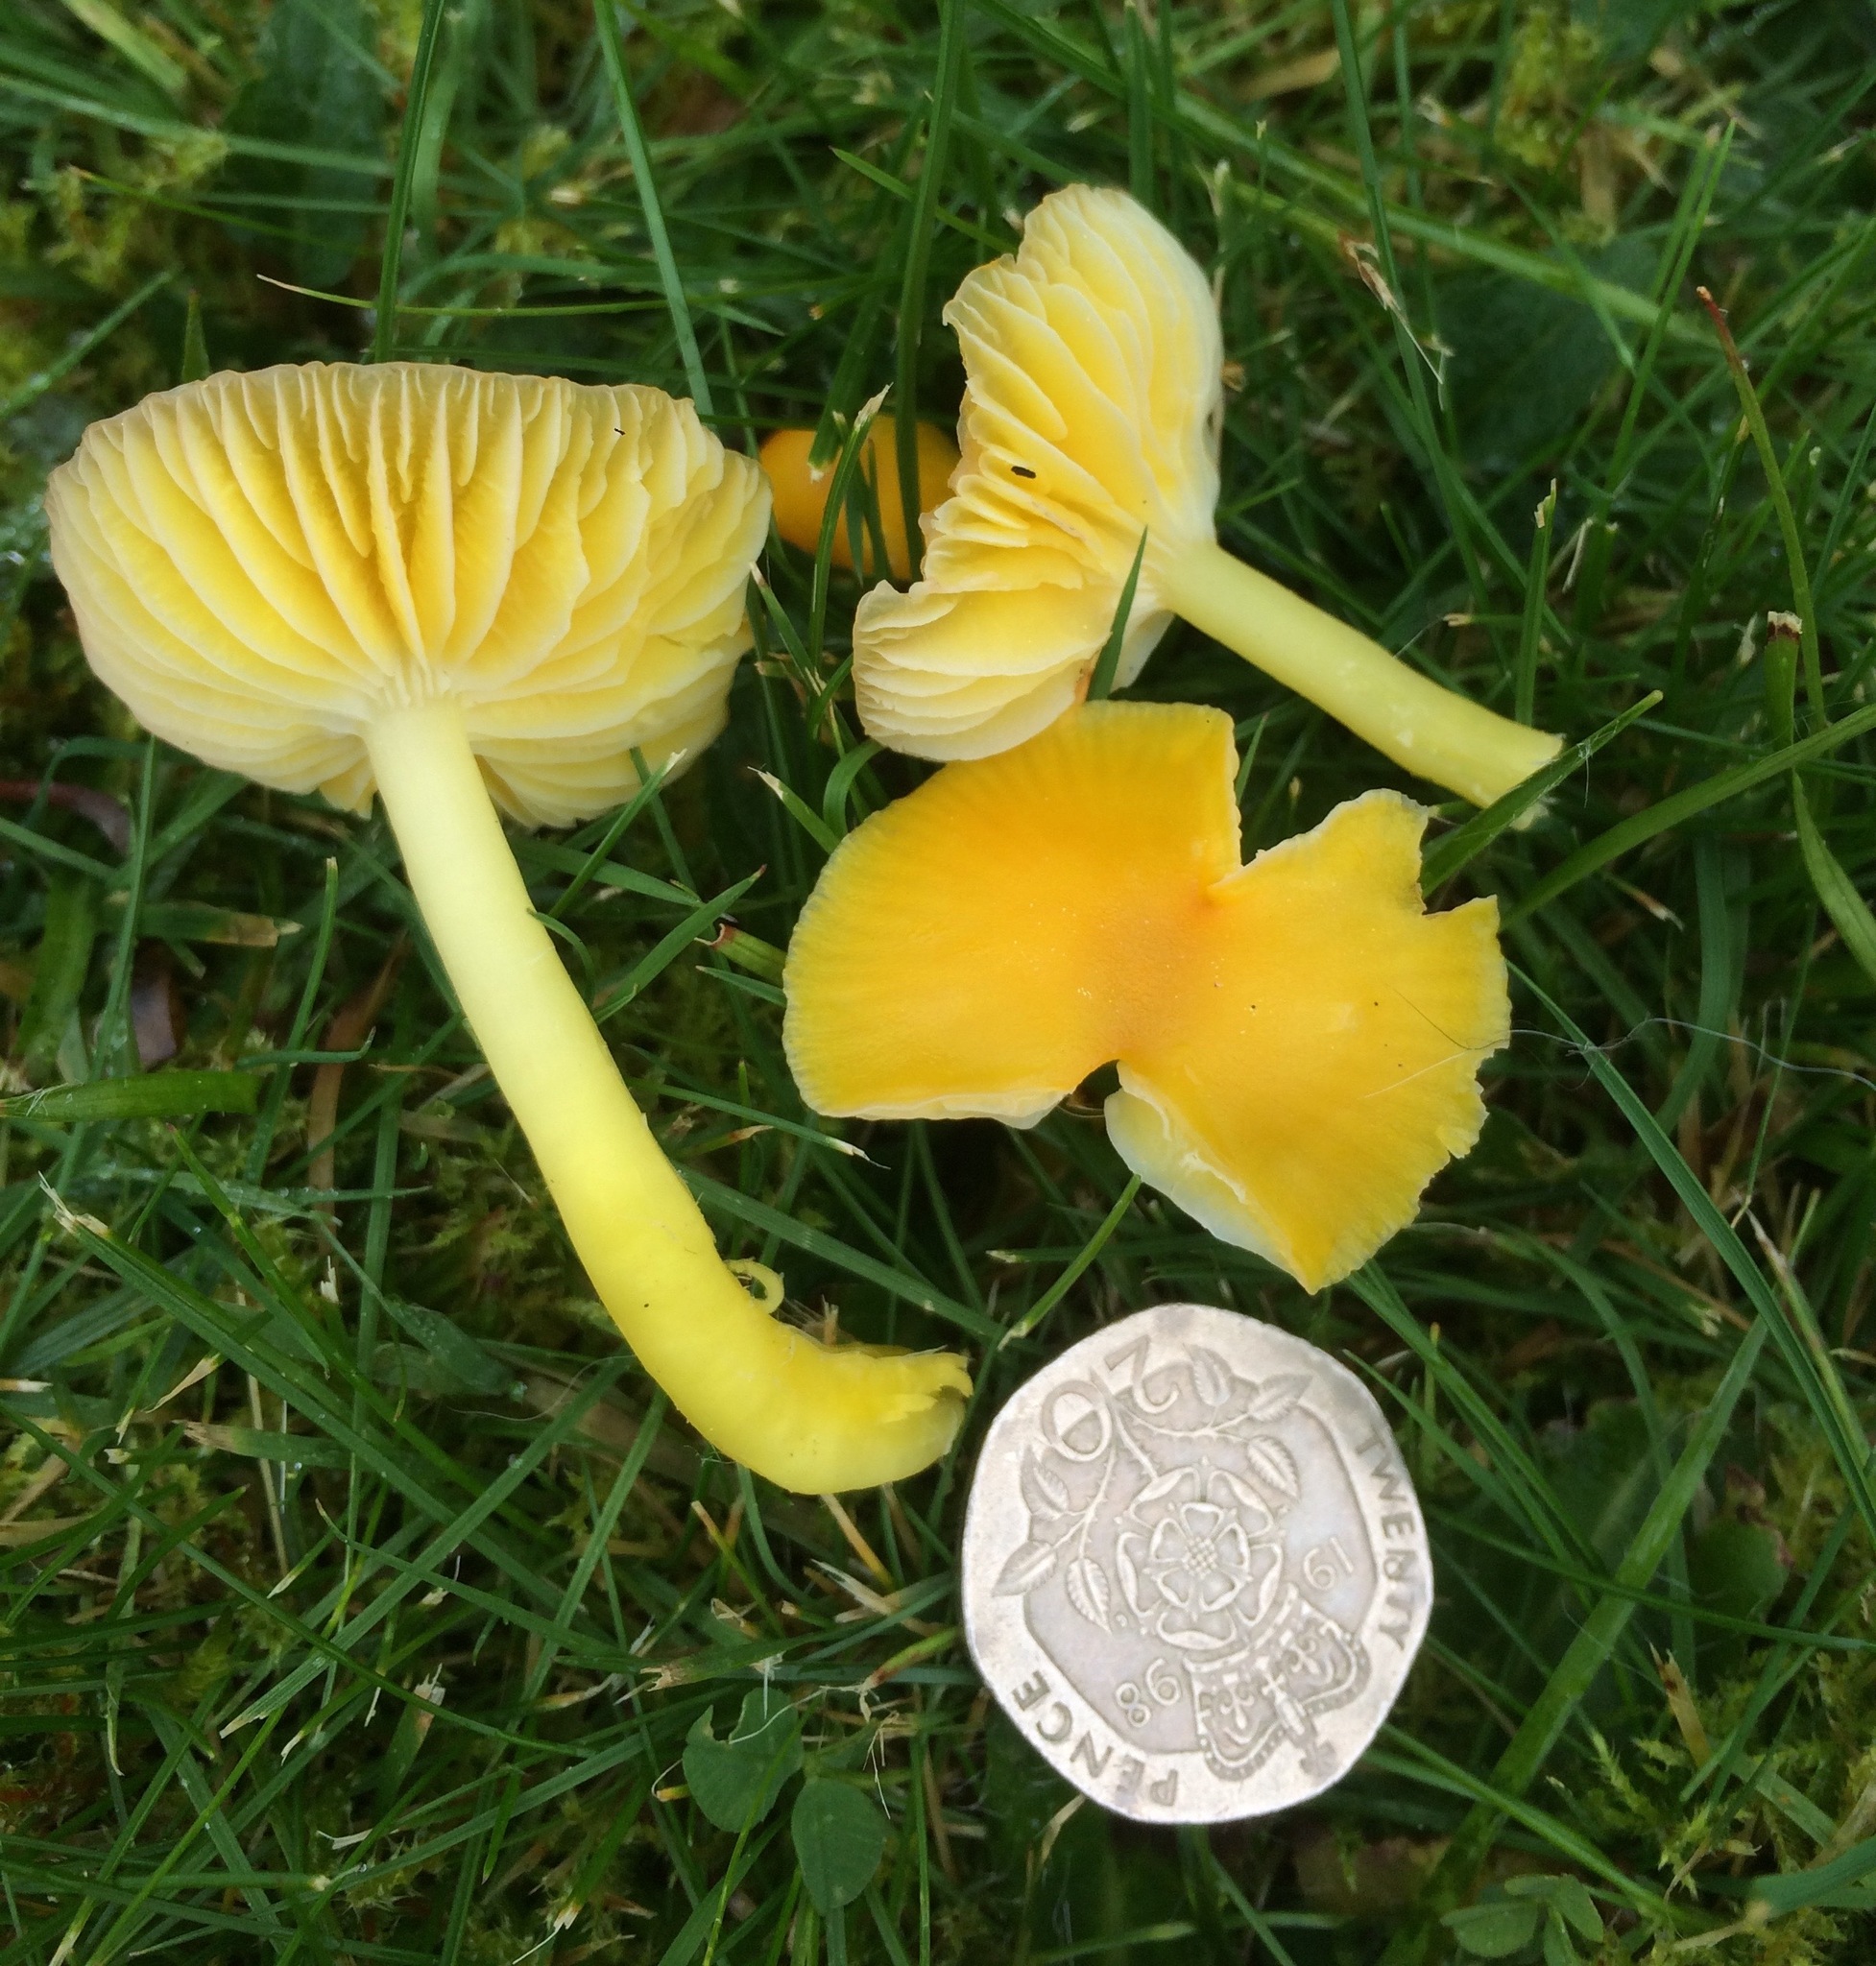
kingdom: Fungi
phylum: Basidiomycota
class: Agaricomycetes
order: Agaricales
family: Hygrophoraceae
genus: Hygrocybe
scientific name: Hygrocybe ceracea
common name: Butter waxcap
